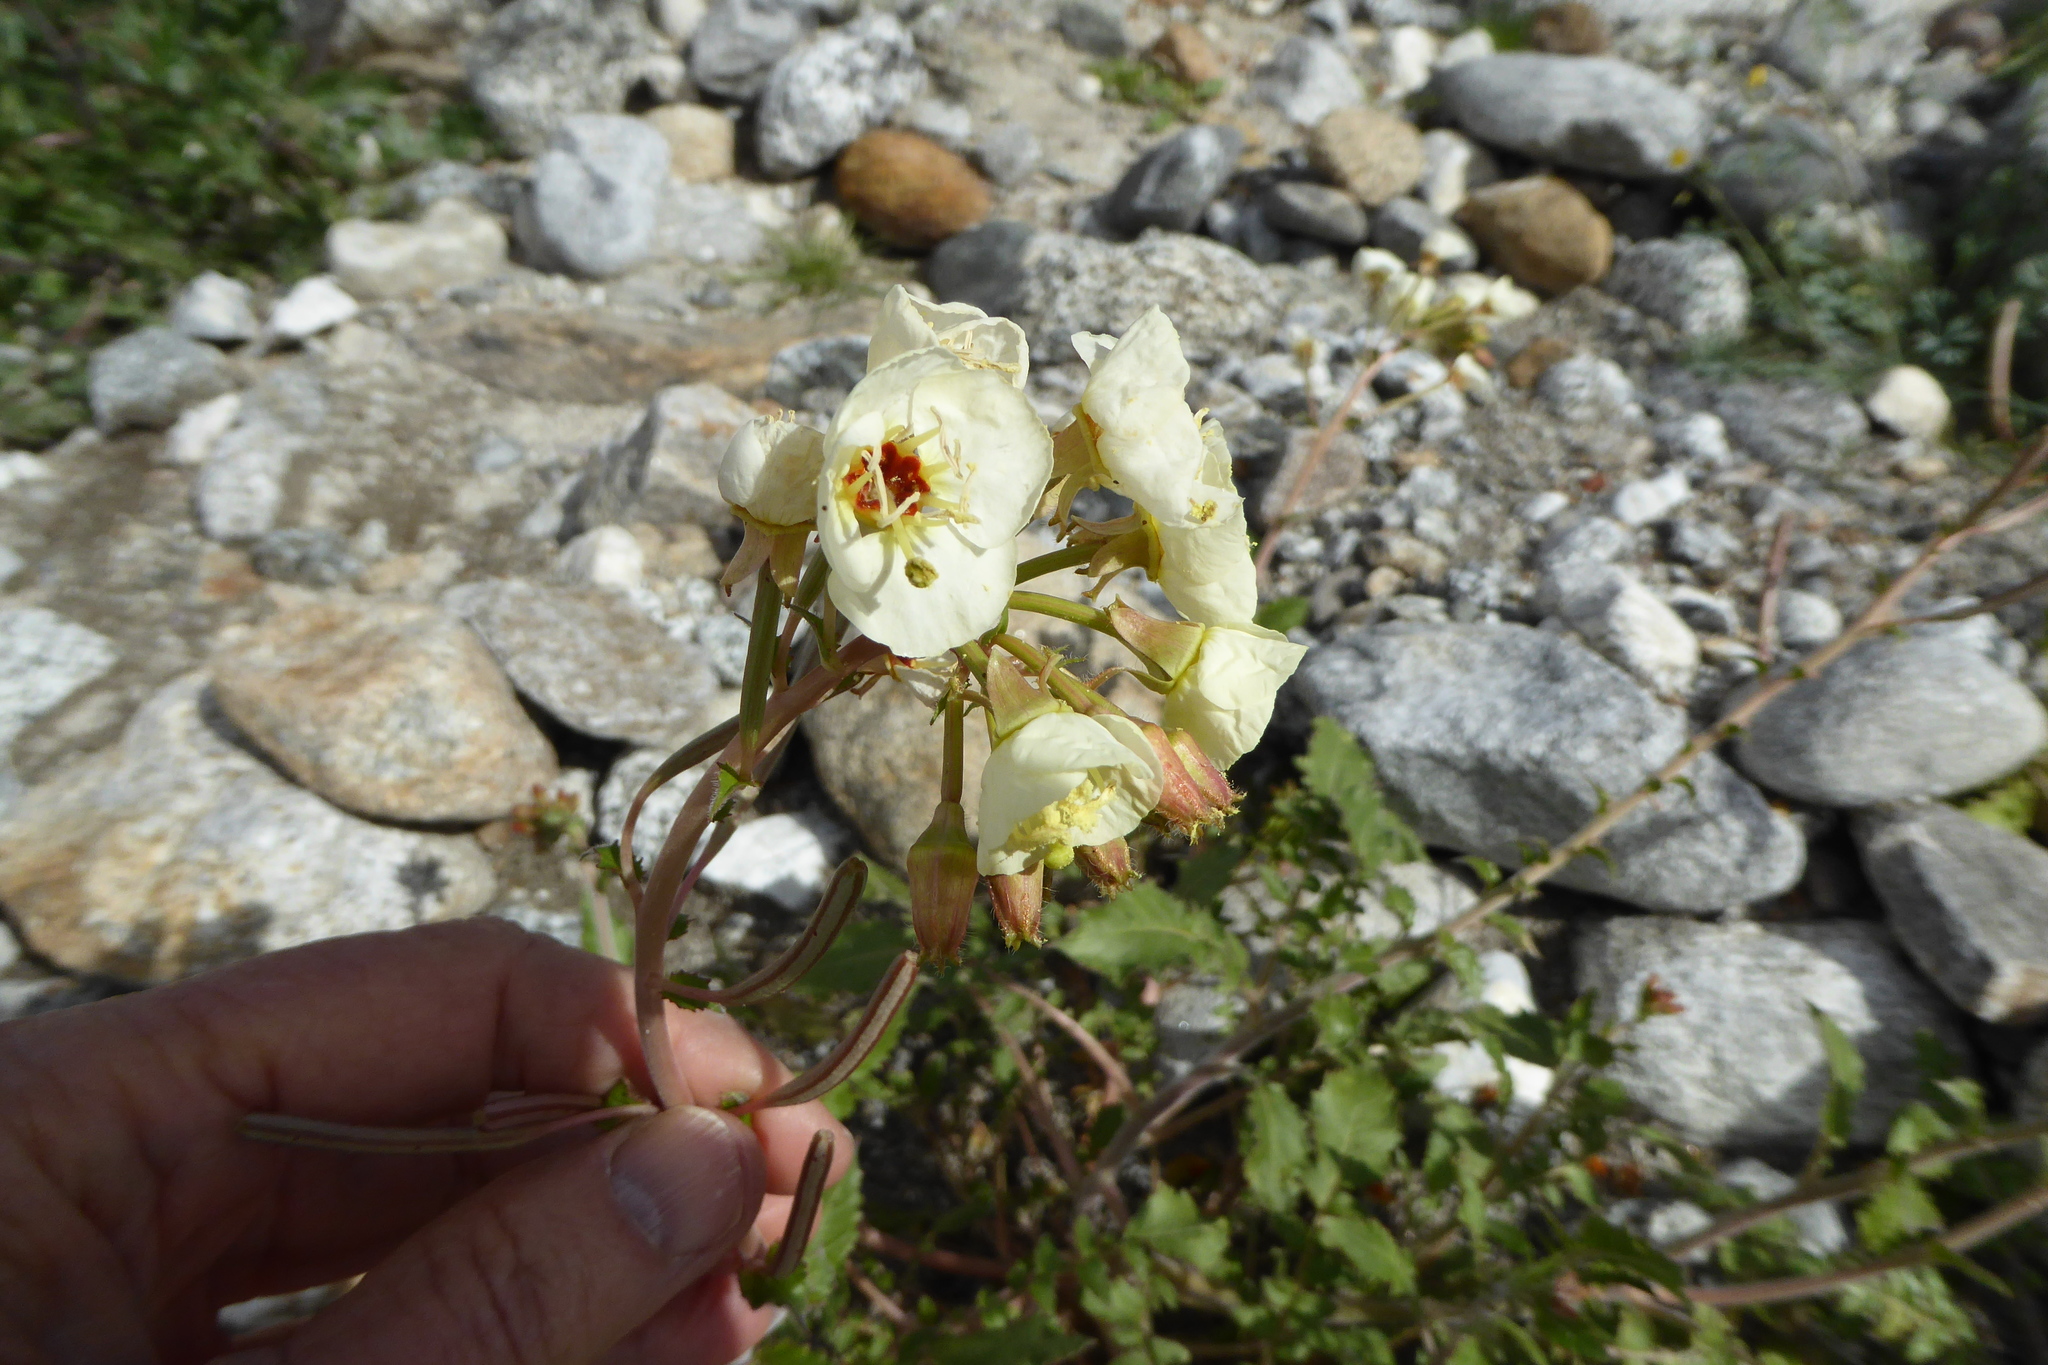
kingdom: Plantae
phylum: Tracheophyta
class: Magnoliopsida
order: Myrtales
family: Onagraceae
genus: Chylismia
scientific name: Chylismia claviformis
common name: Browneyes
